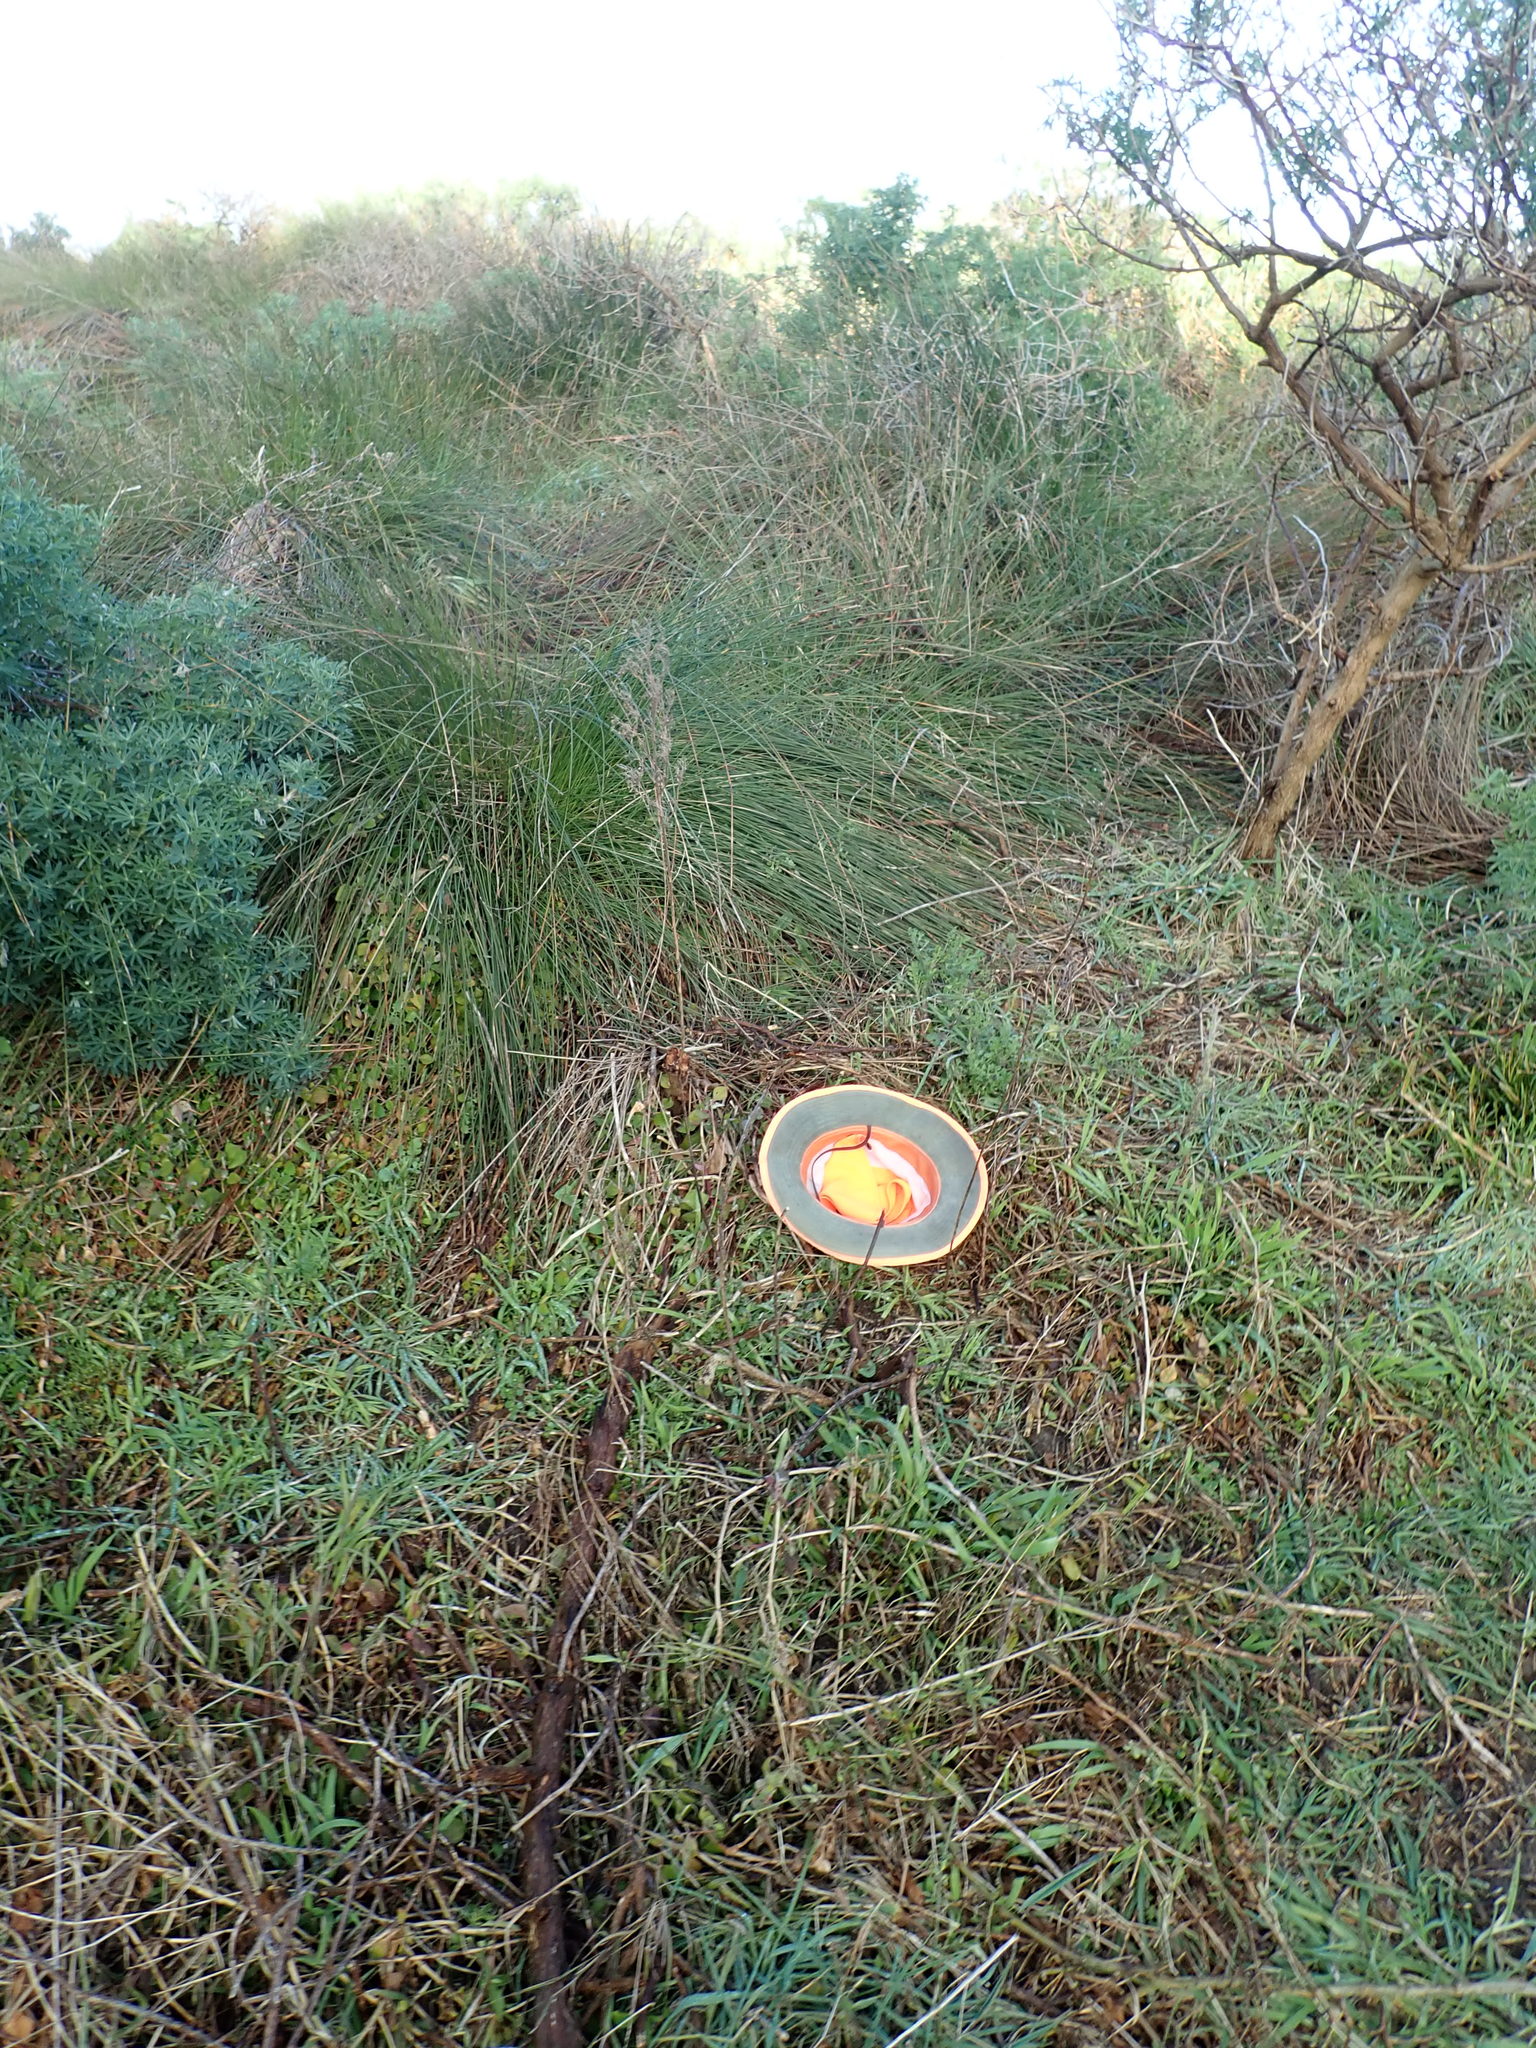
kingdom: Plantae
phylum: Tracheophyta
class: Magnoliopsida
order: Caryophyllales
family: Aizoaceae
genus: Tetragonia
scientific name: Tetragonia implexicoma
